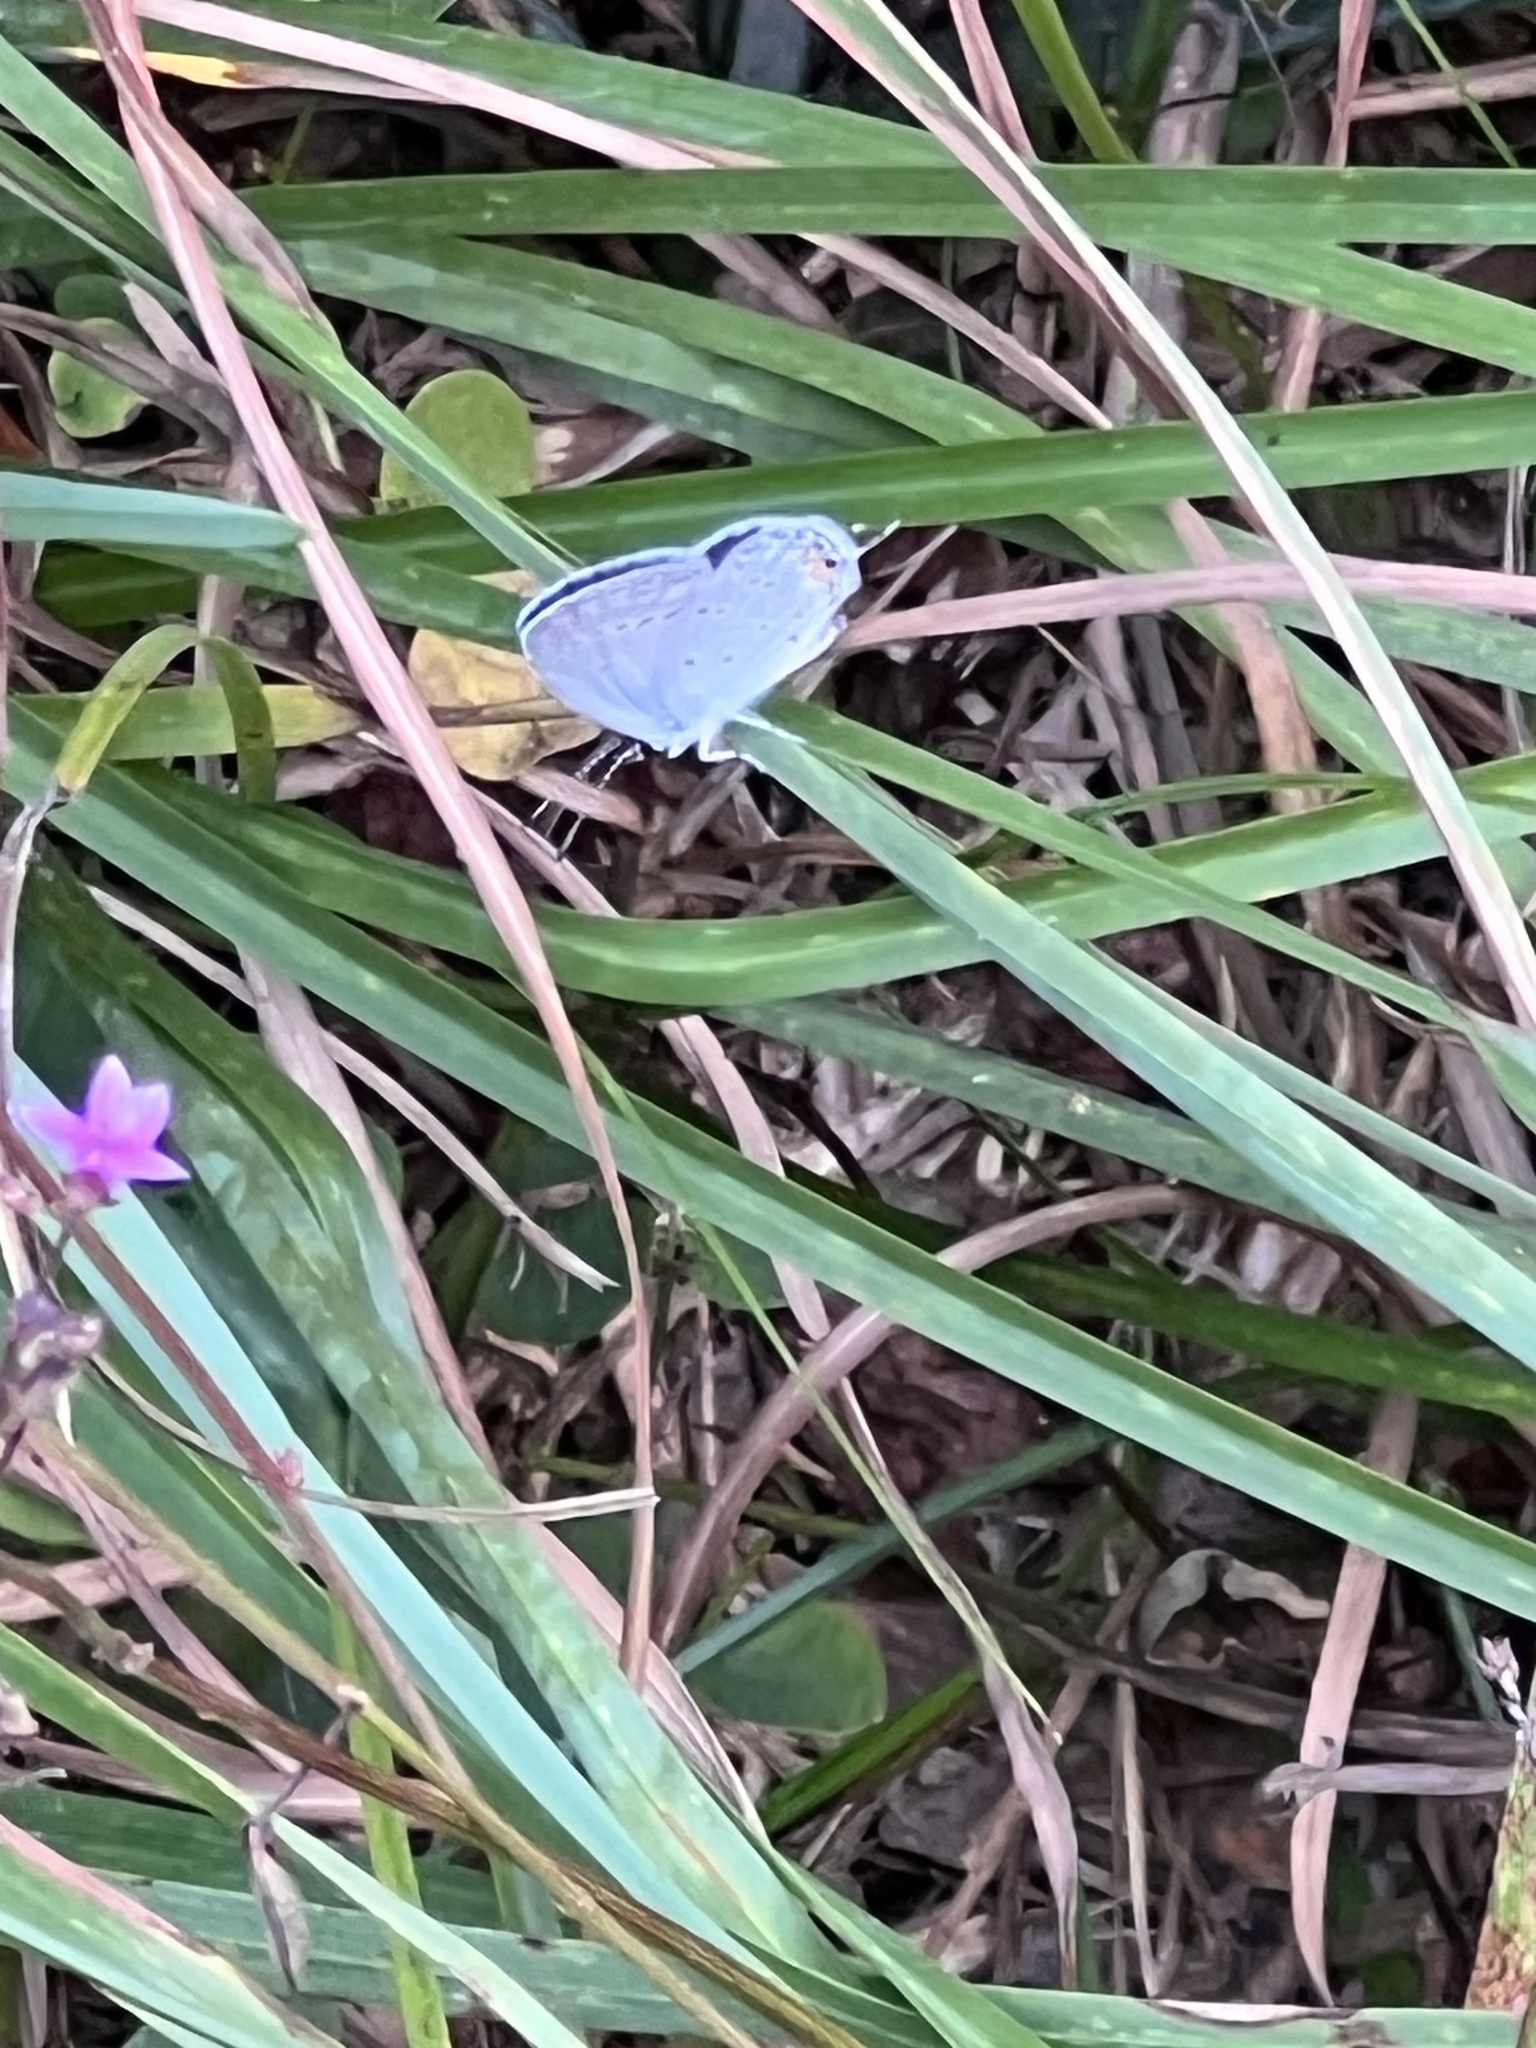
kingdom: Animalia
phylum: Arthropoda
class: Insecta
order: Lepidoptera
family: Lycaenidae
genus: Elkalyce
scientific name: Elkalyce comyntas
